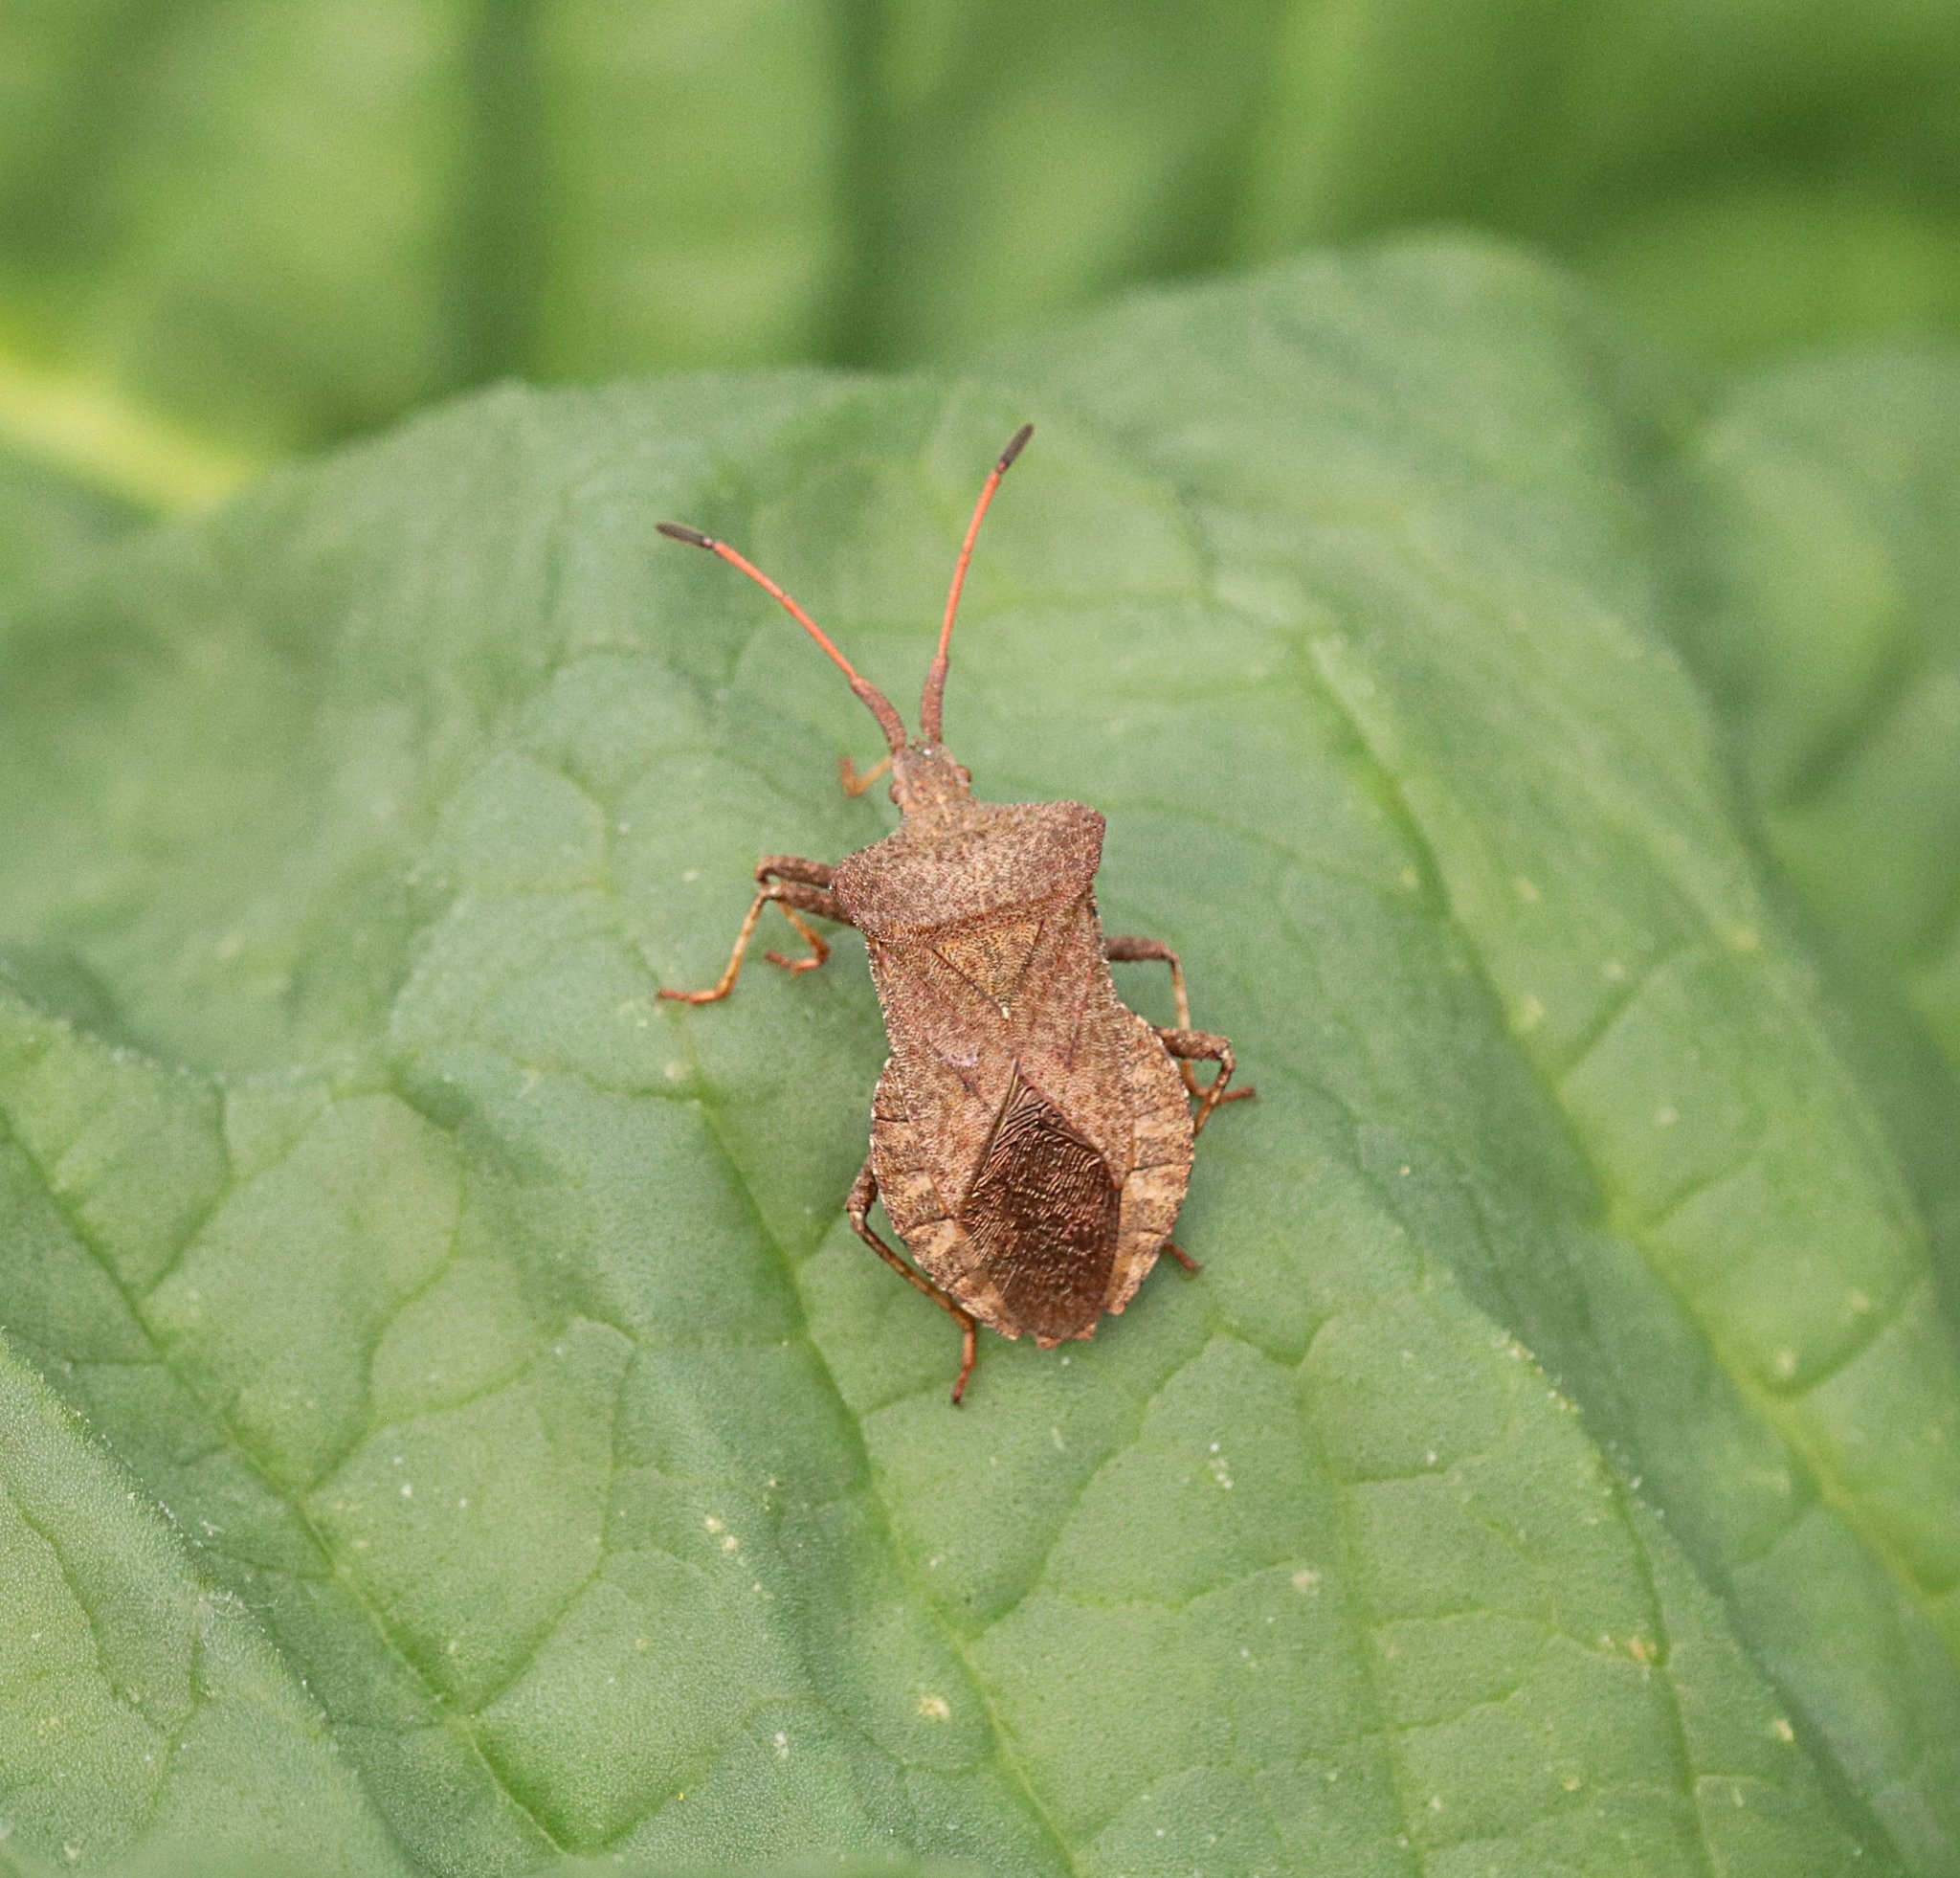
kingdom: Animalia
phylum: Arthropoda
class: Insecta
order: Hemiptera
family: Coreidae
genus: Coreus
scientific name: Coreus marginatus
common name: Dock bug
